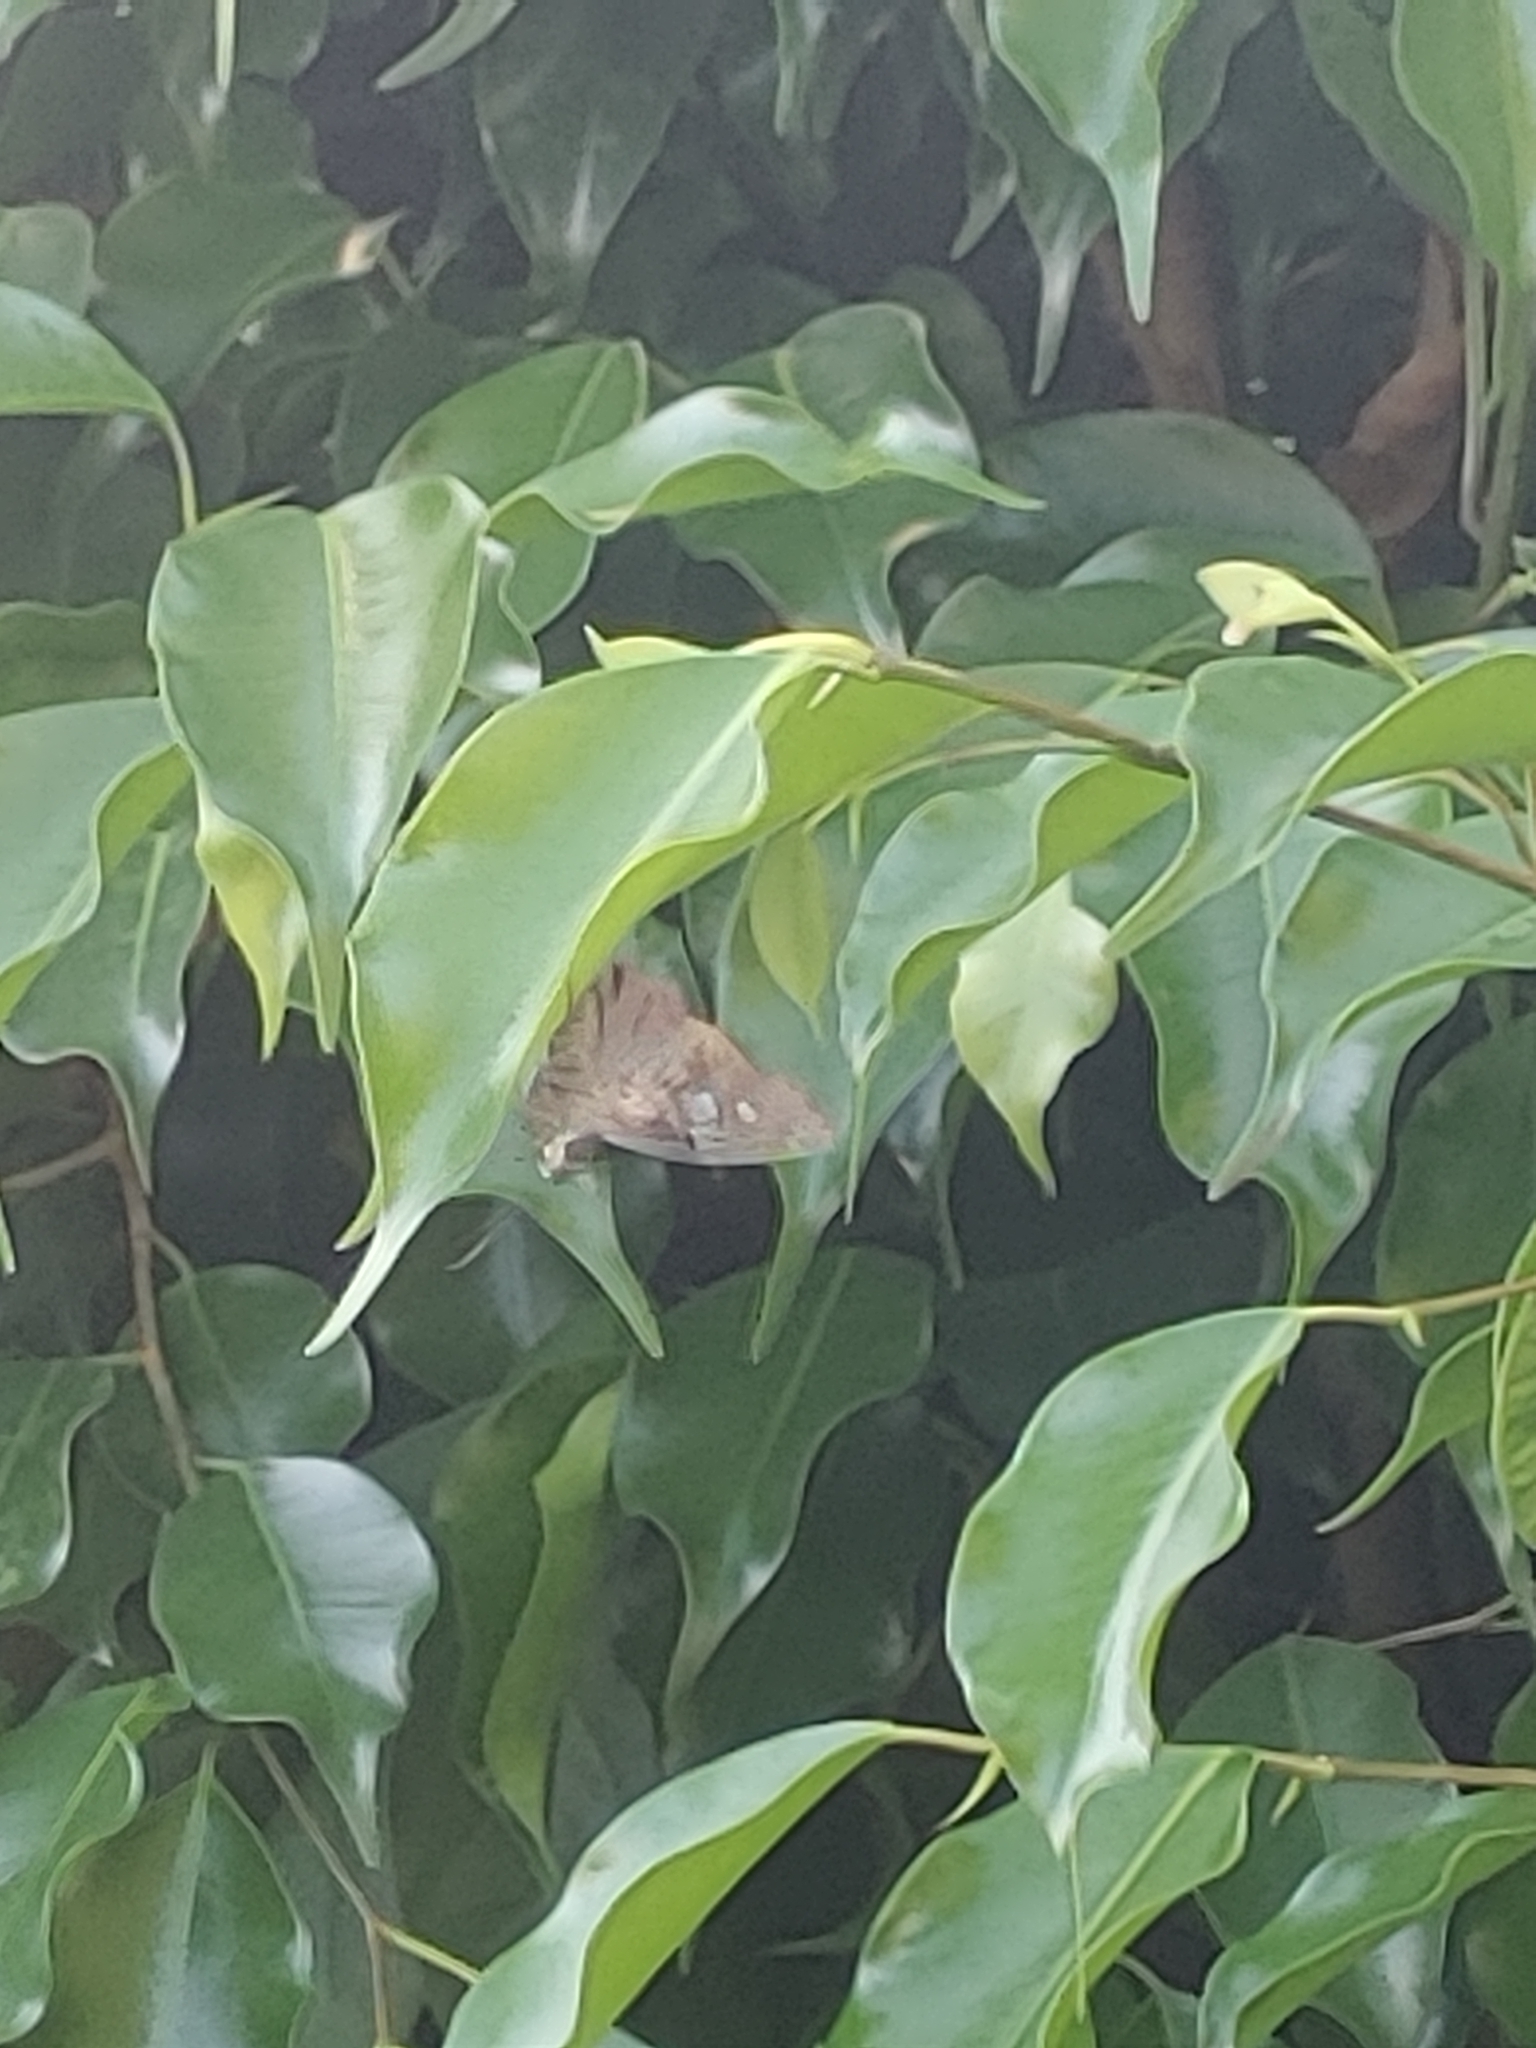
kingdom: Animalia
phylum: Arthropoda
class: Insecta
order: Lepidoptera
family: Hesperiidae
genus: Polygonus
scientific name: Polygonus leo
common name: Hammoch skipper
